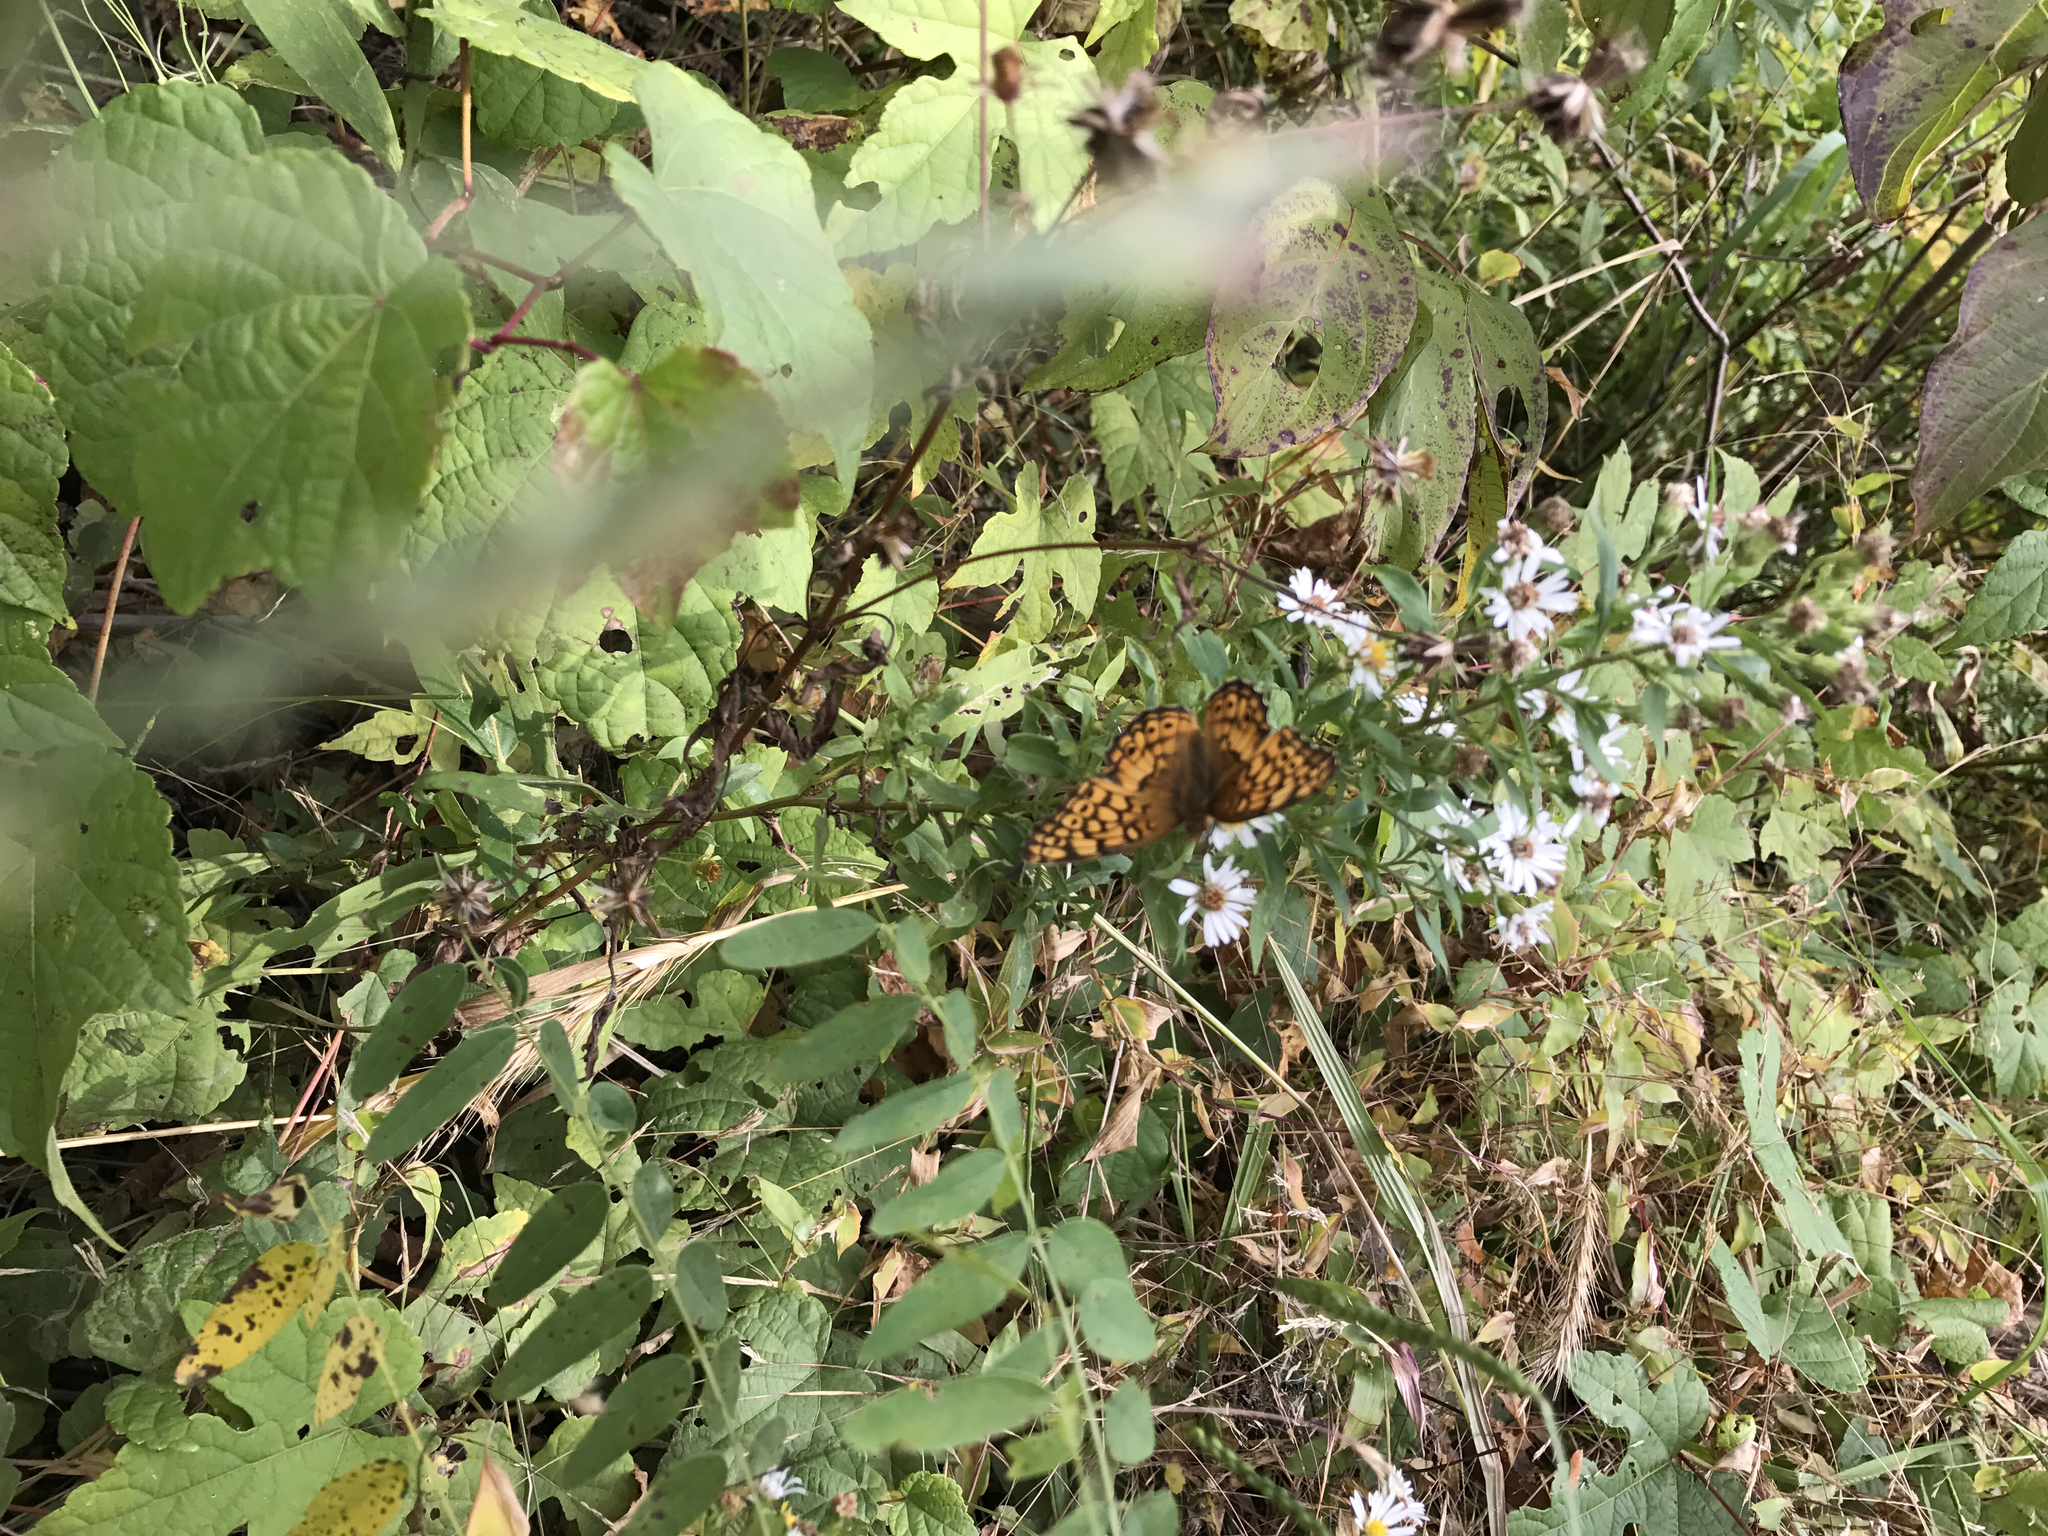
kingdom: Animalia
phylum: Arthropoda
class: Insecta
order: Lepidoptera
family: Nymphalidae
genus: Euptoieta
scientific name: Euptoieta claudia
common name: Variegated fritillary
